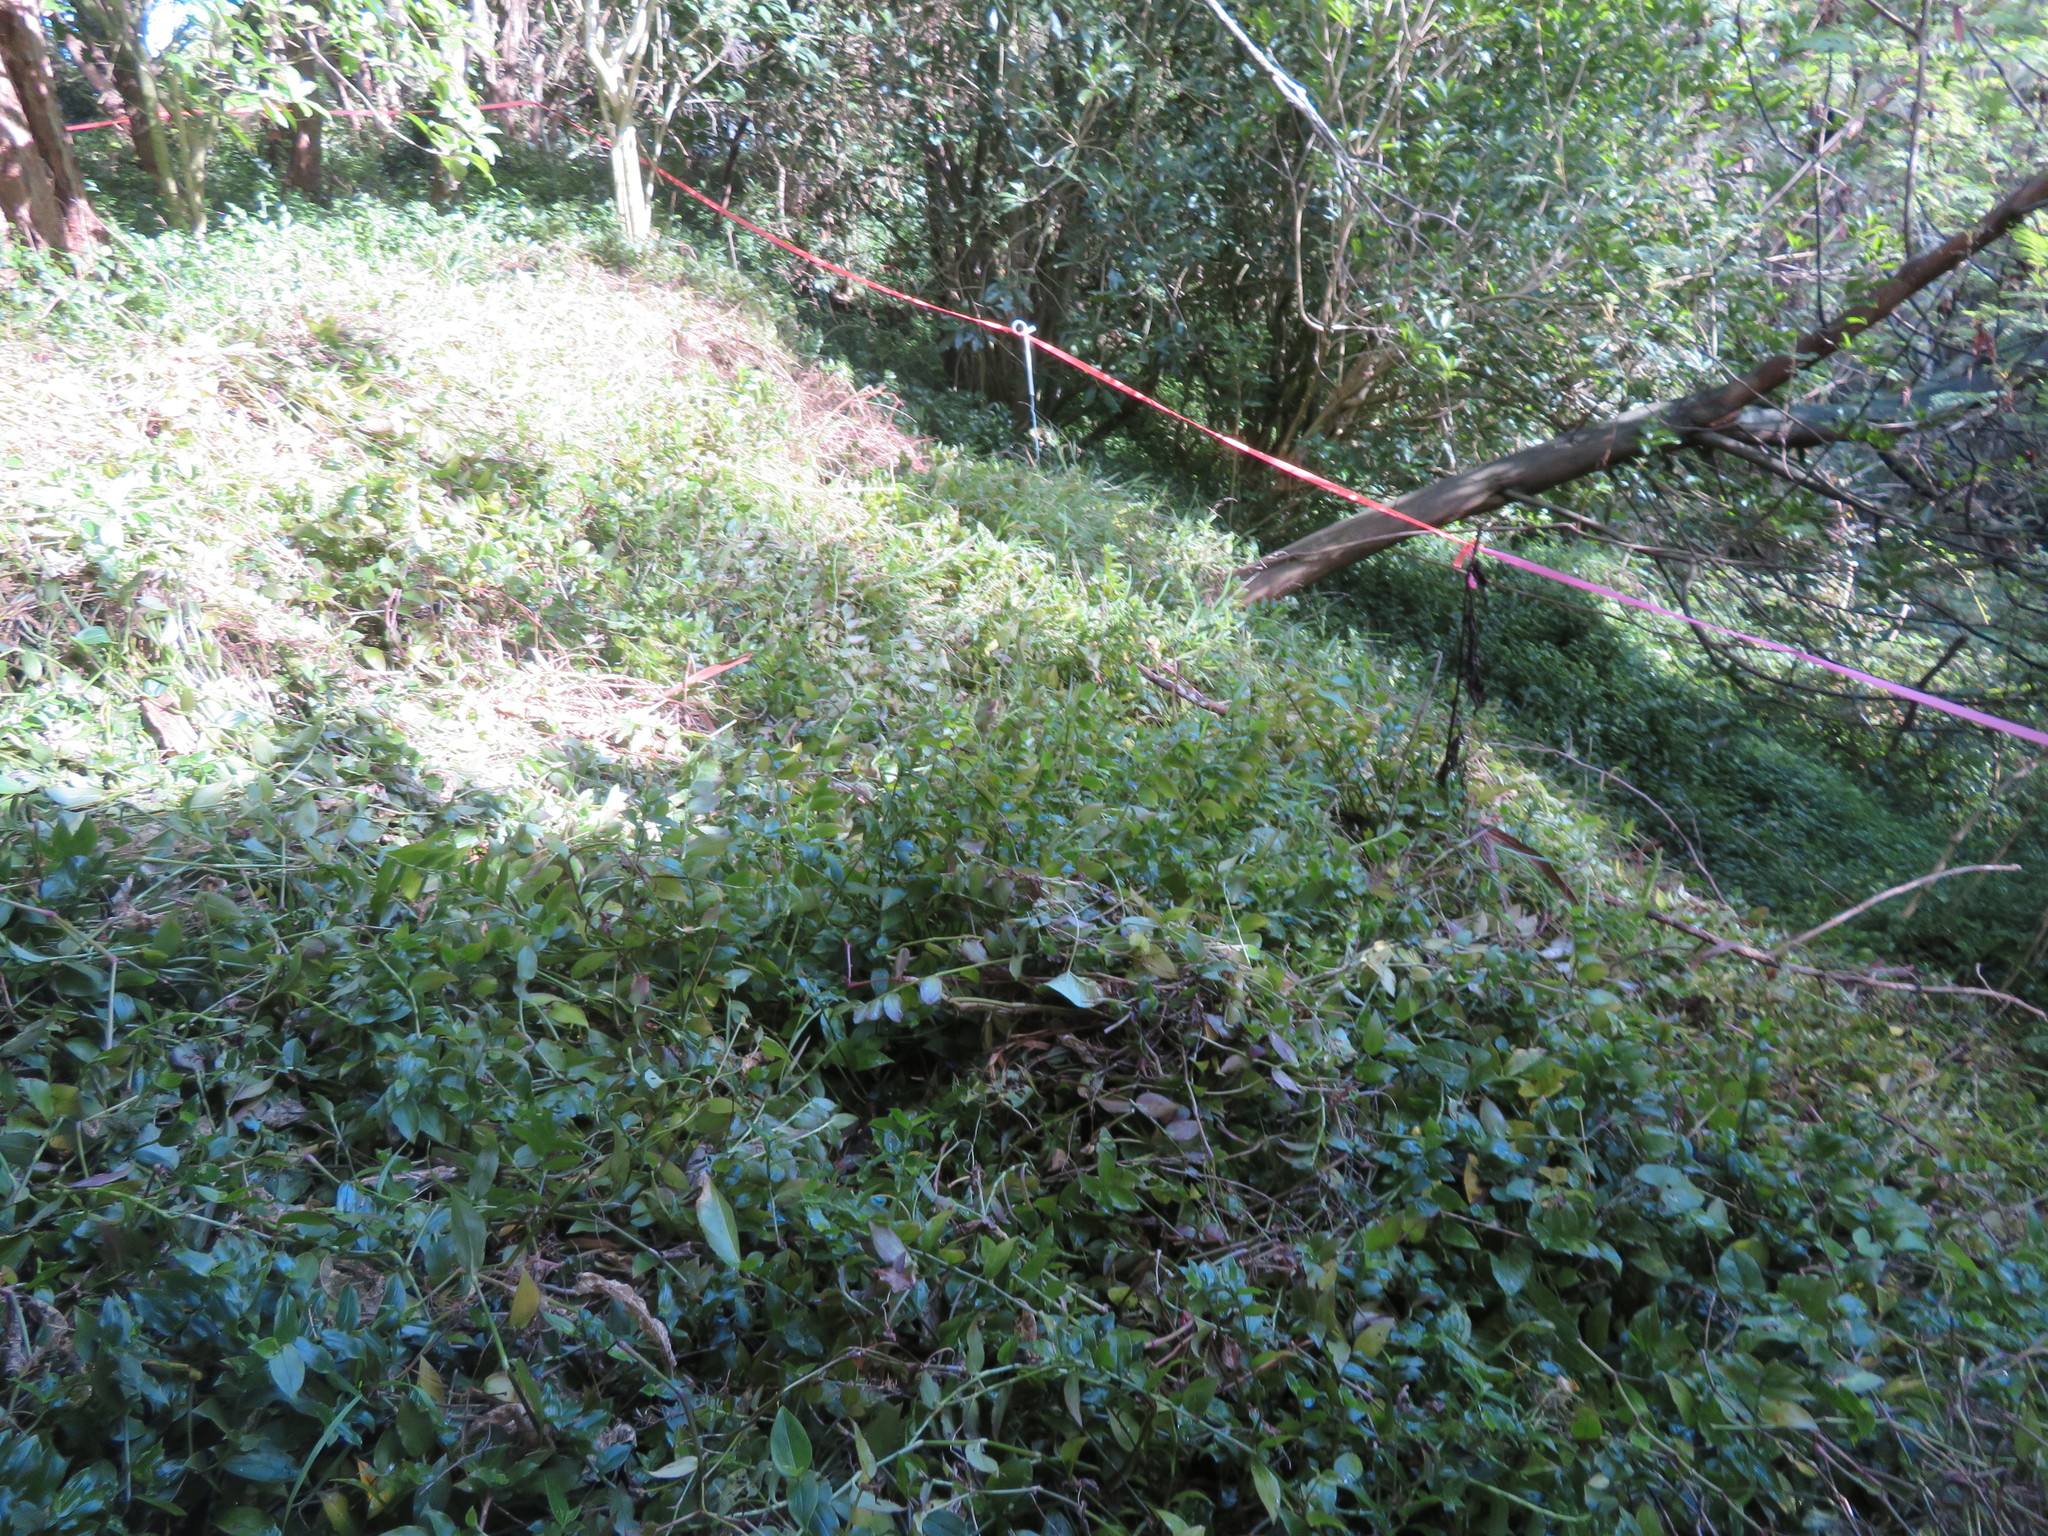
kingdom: Plantae
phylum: Tracheophyta
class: Liliopsida
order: Commelinales
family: Commelinaceae
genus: Tradescantia
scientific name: Tradescantia fluminensis
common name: Wandering-jew
